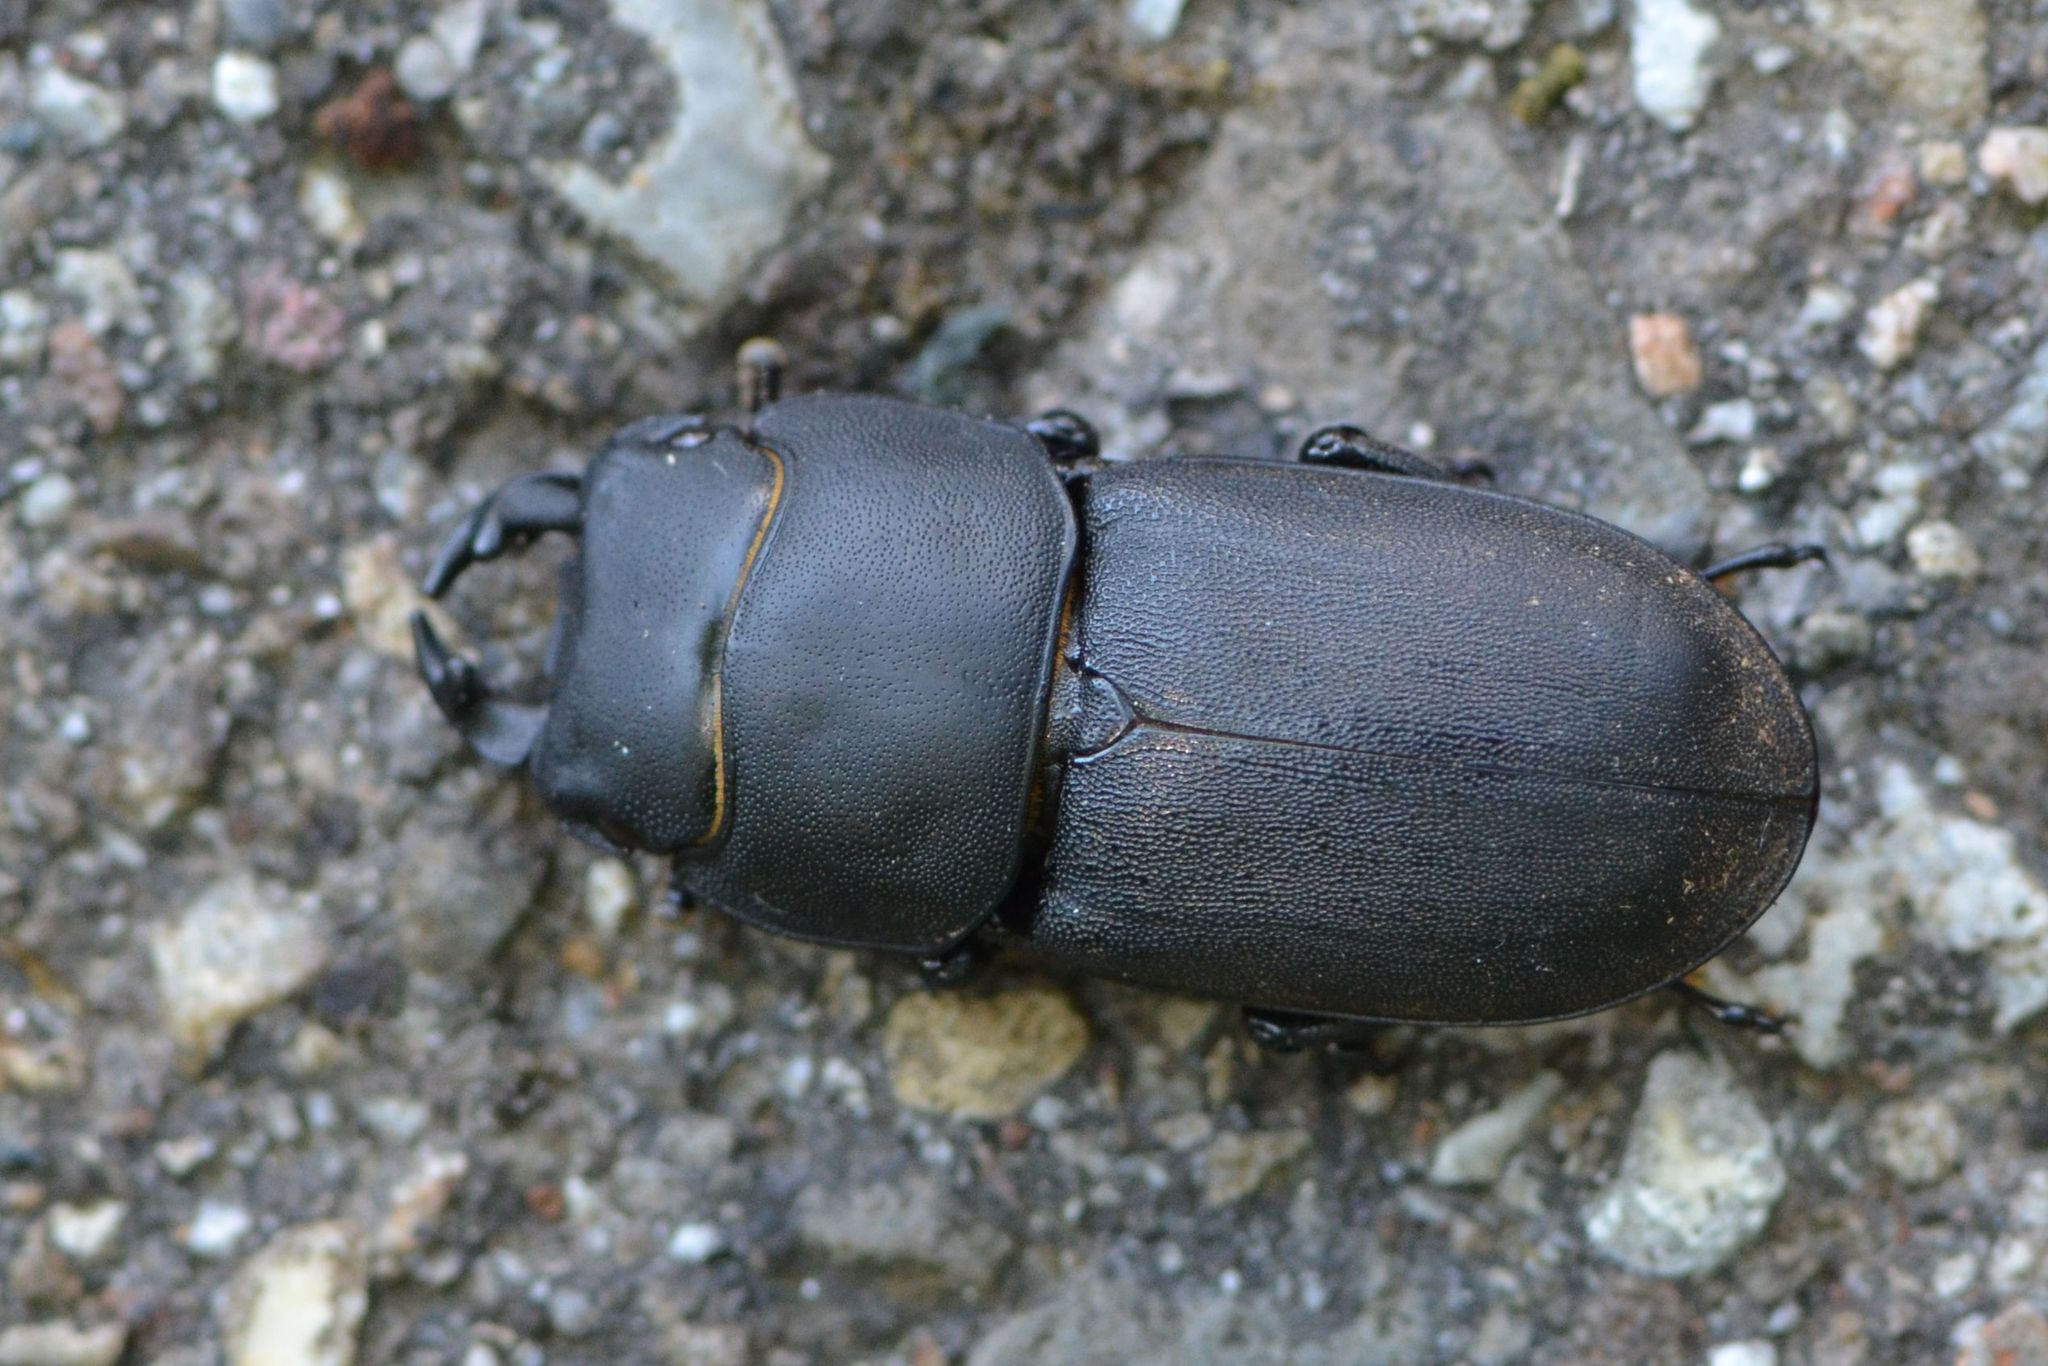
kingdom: Animalia
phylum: Arthropoda
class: Insecta
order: Coleoptera
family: Lucanidae
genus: Dorcus
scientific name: Dorcus parallelipipedus
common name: Lesser stag beetle
